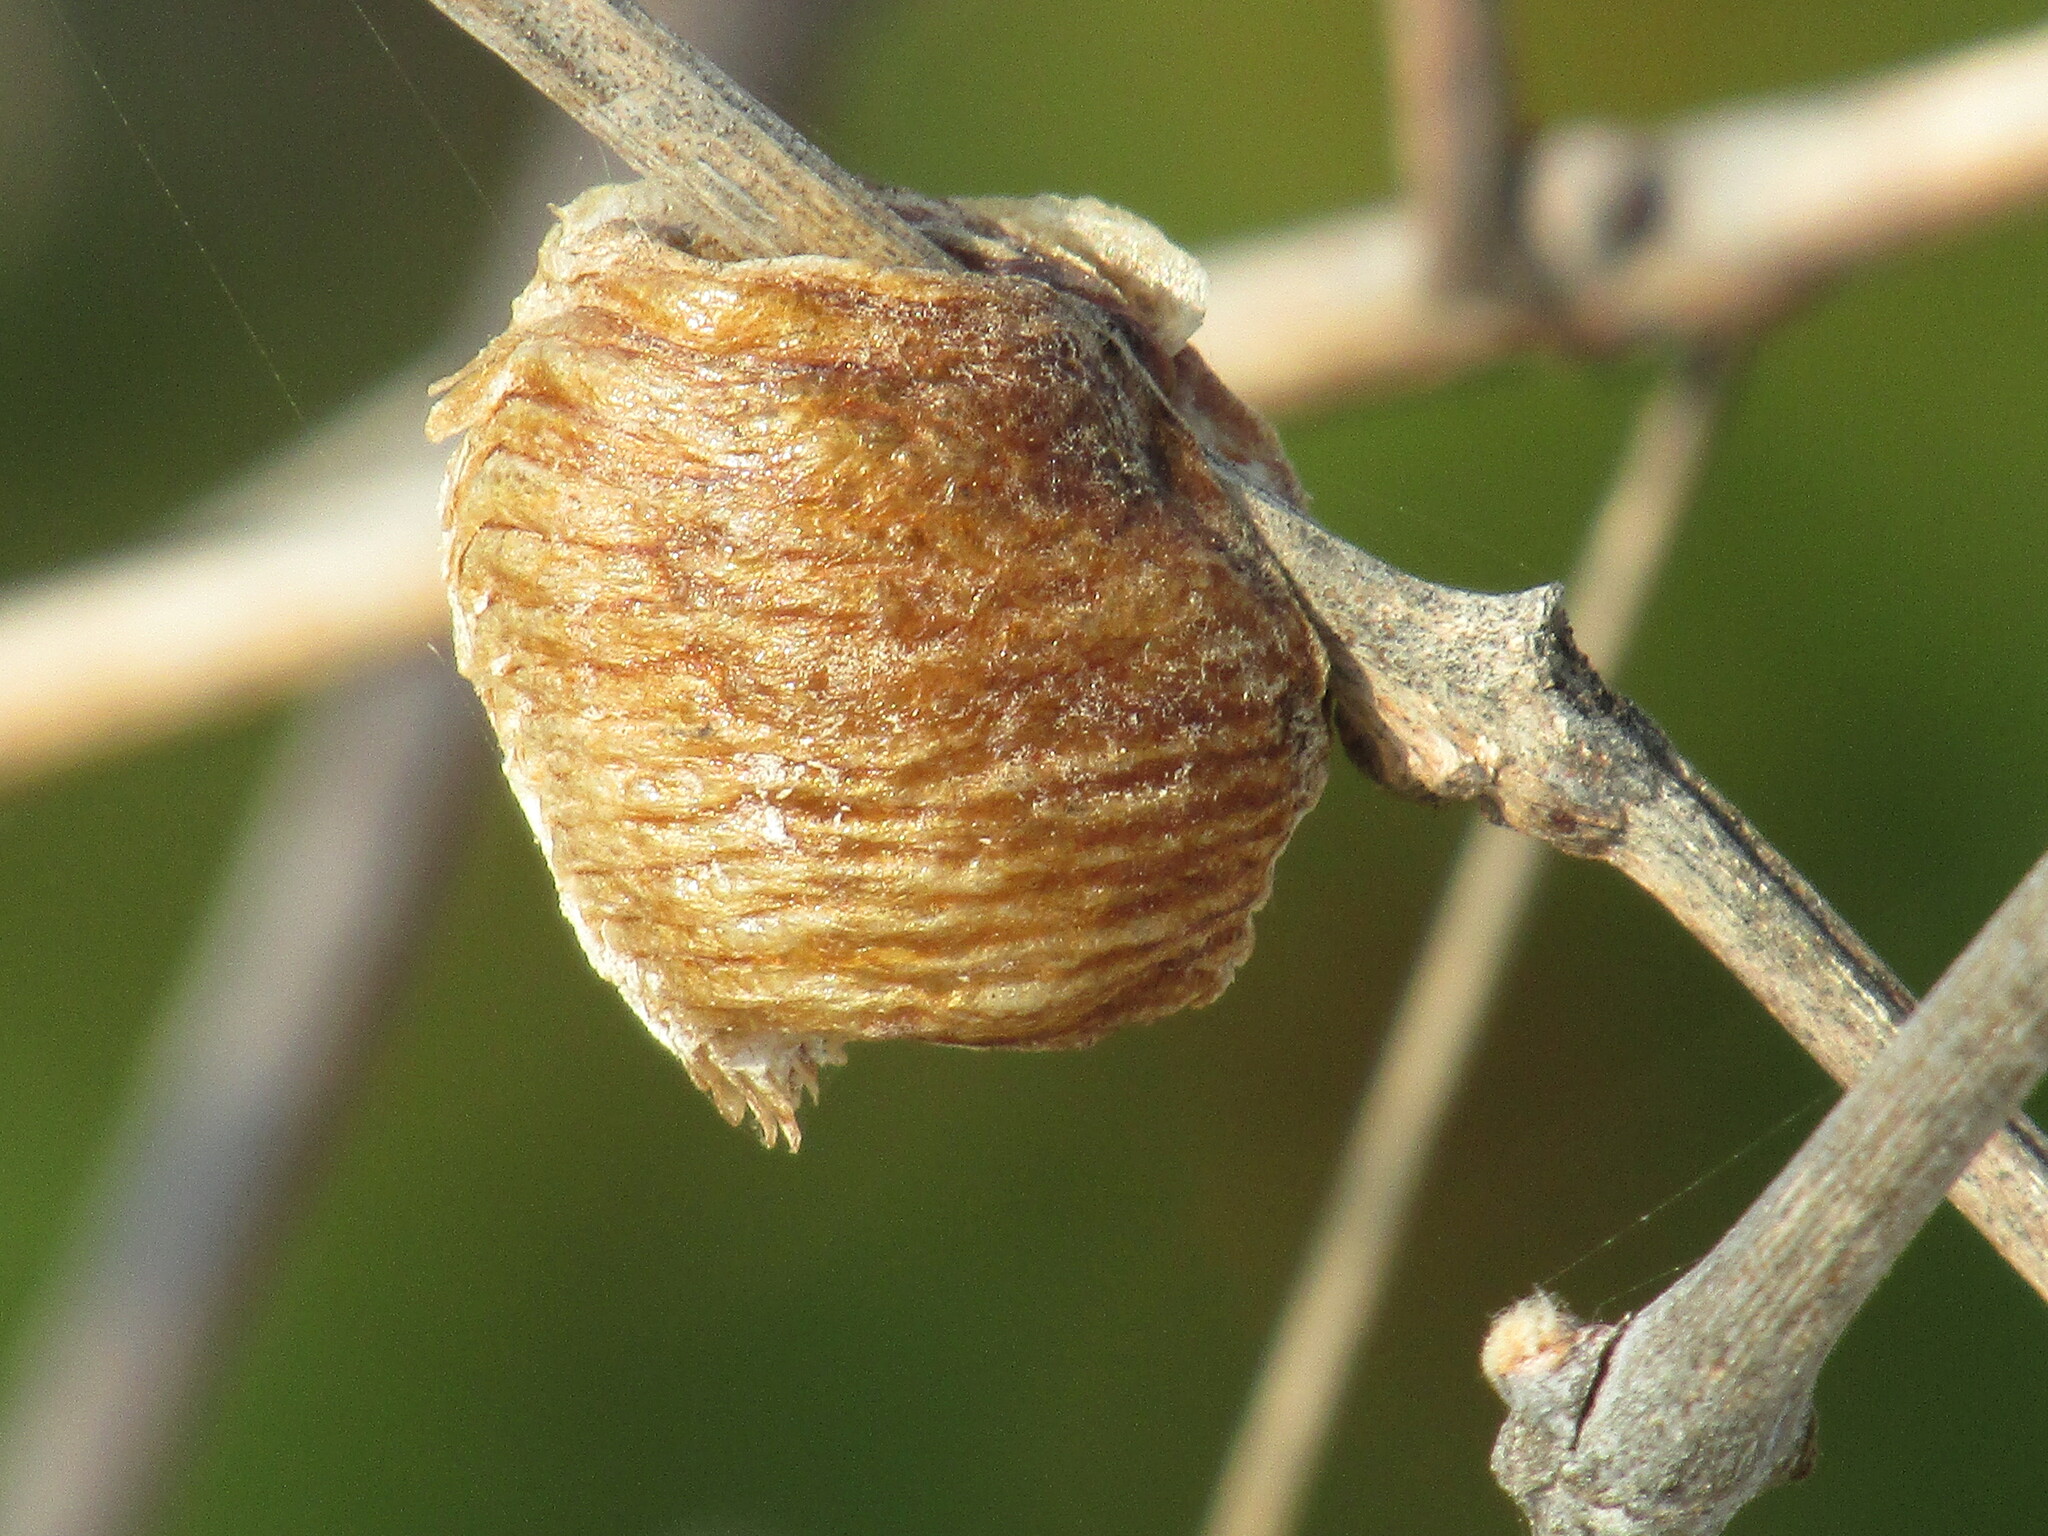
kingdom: Animalia
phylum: Arthropoda
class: Insecta
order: Mantodea
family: Mantidae
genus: Hierodula
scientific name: Hierodula transcaucasica
